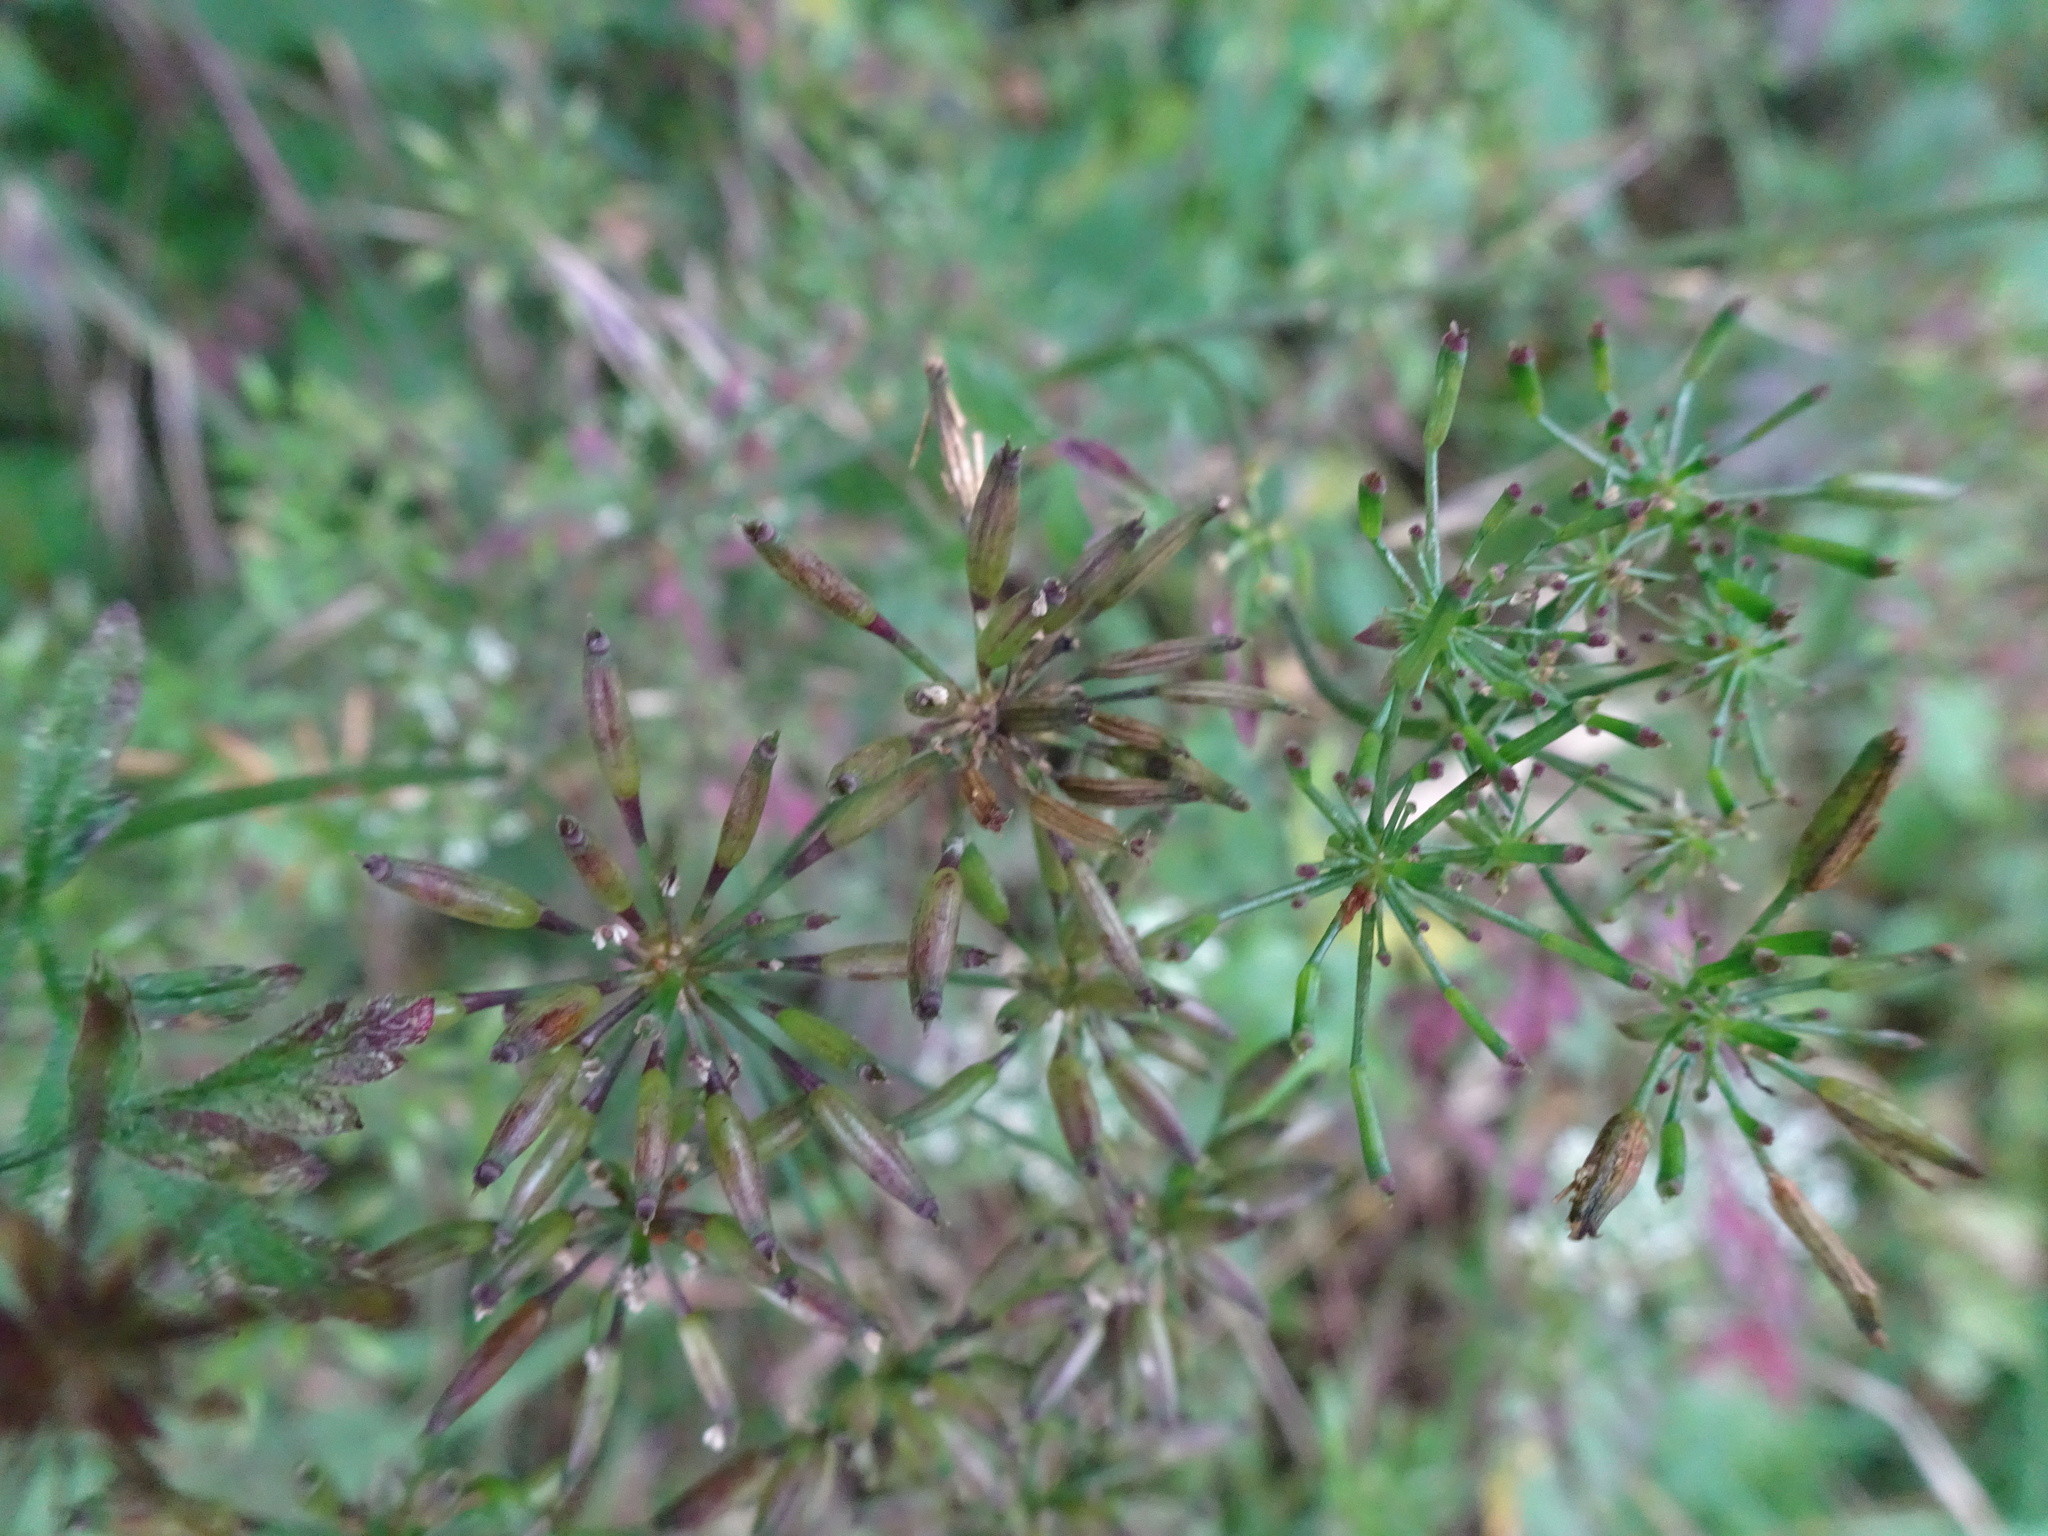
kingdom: Plantae
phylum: Tracheophyta
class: Magnoliopsida
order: Apiales
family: Apiaceae
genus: Chaerophyllum
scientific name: Chaerophyllum temulum
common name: Rough chervil
